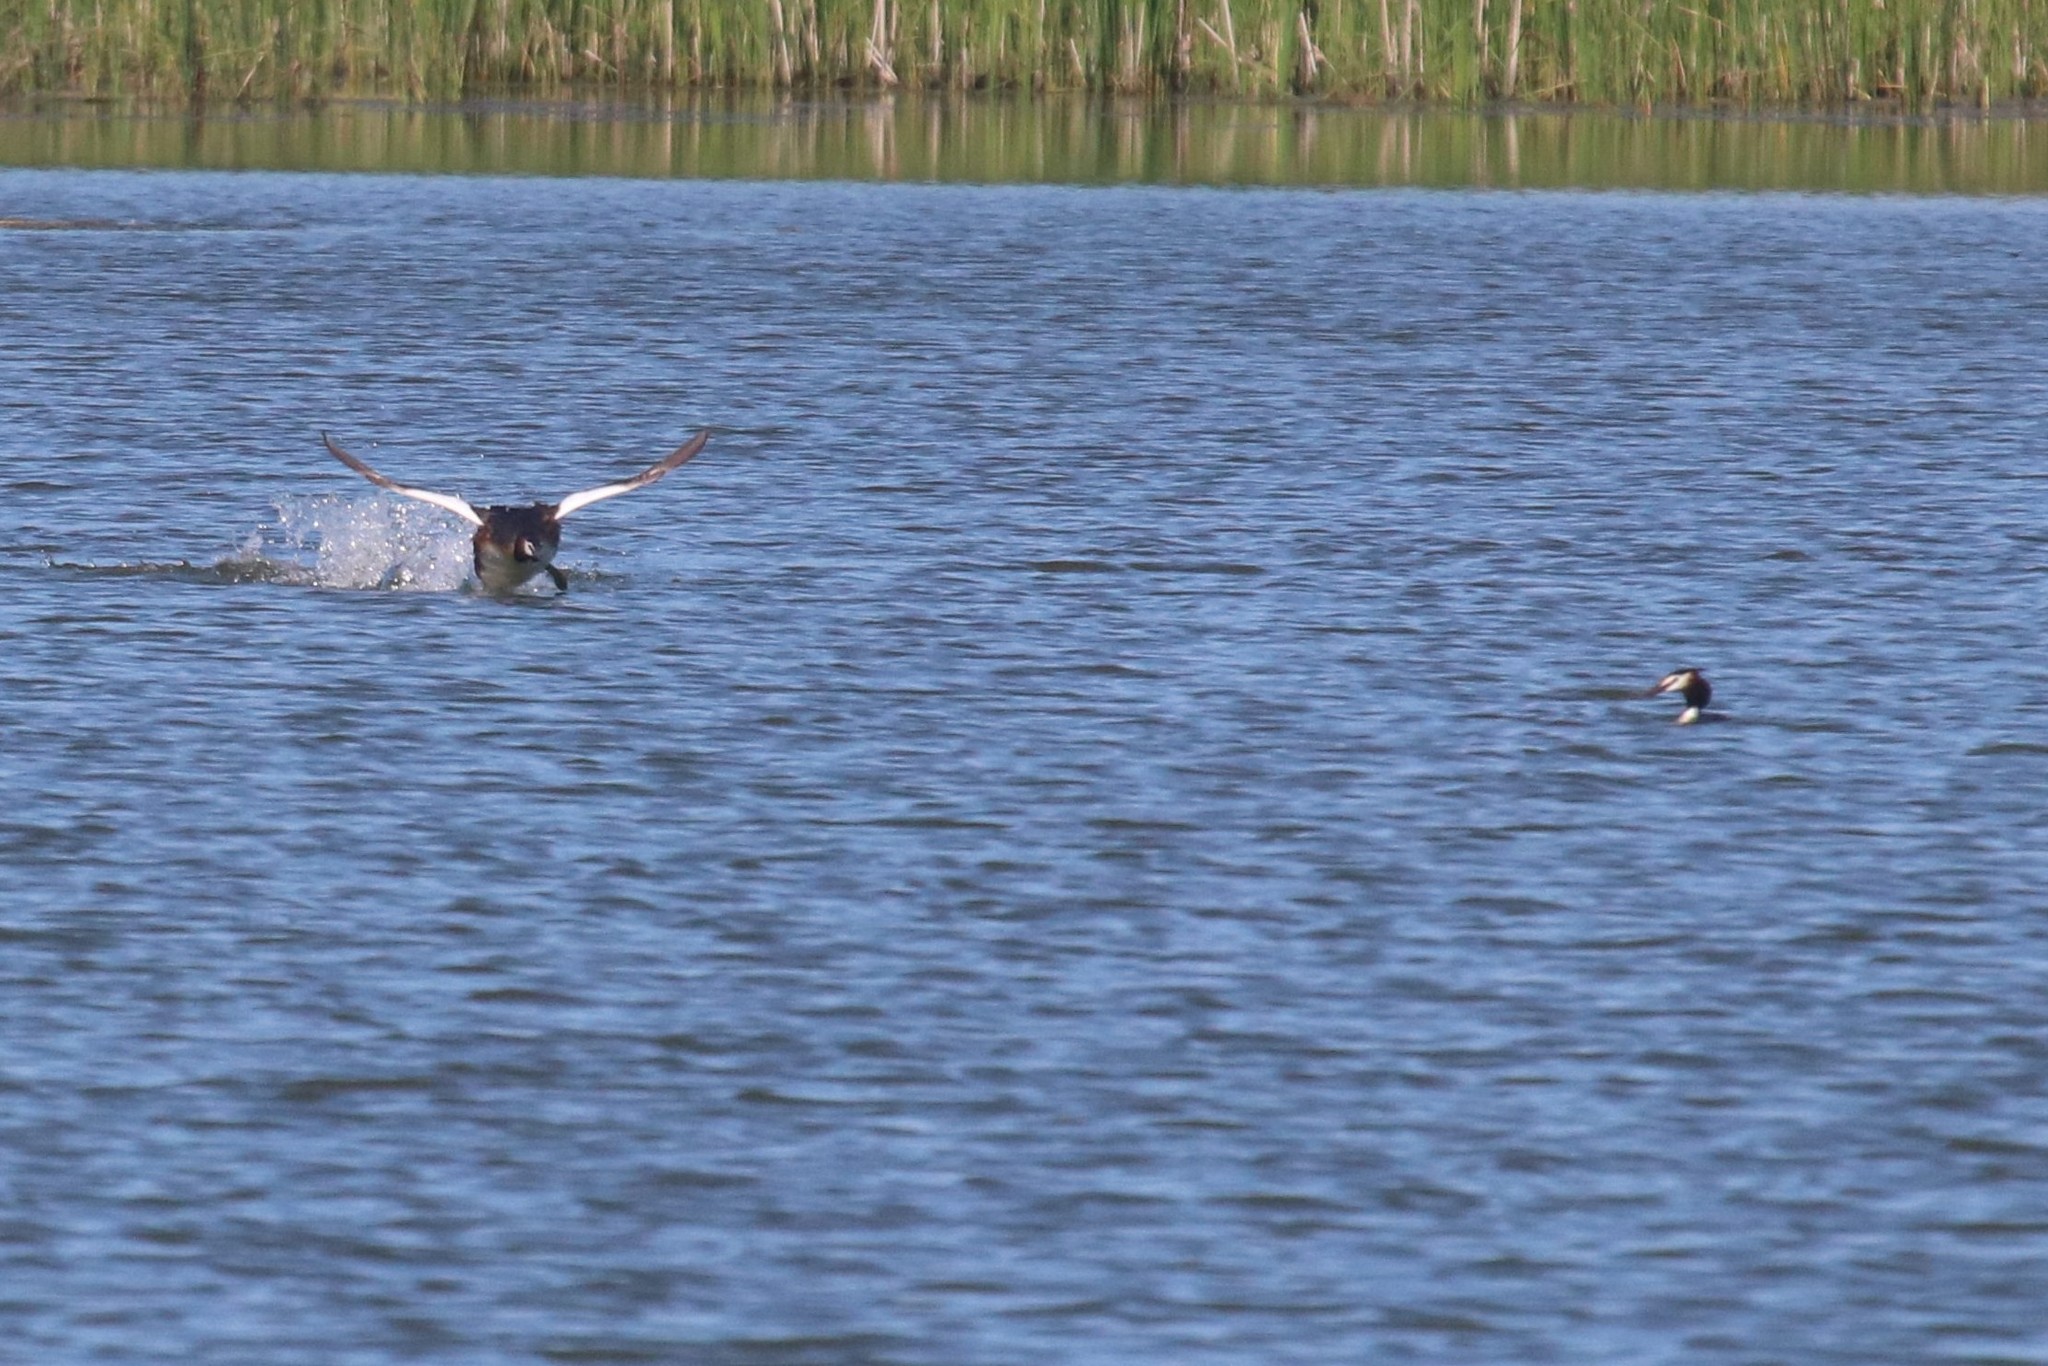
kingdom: Animalia
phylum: Chordata
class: Aves
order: Podicipediformes
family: Podicipedidae
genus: Podiceps
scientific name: Podiceps cristatus
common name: Great crested grebe
